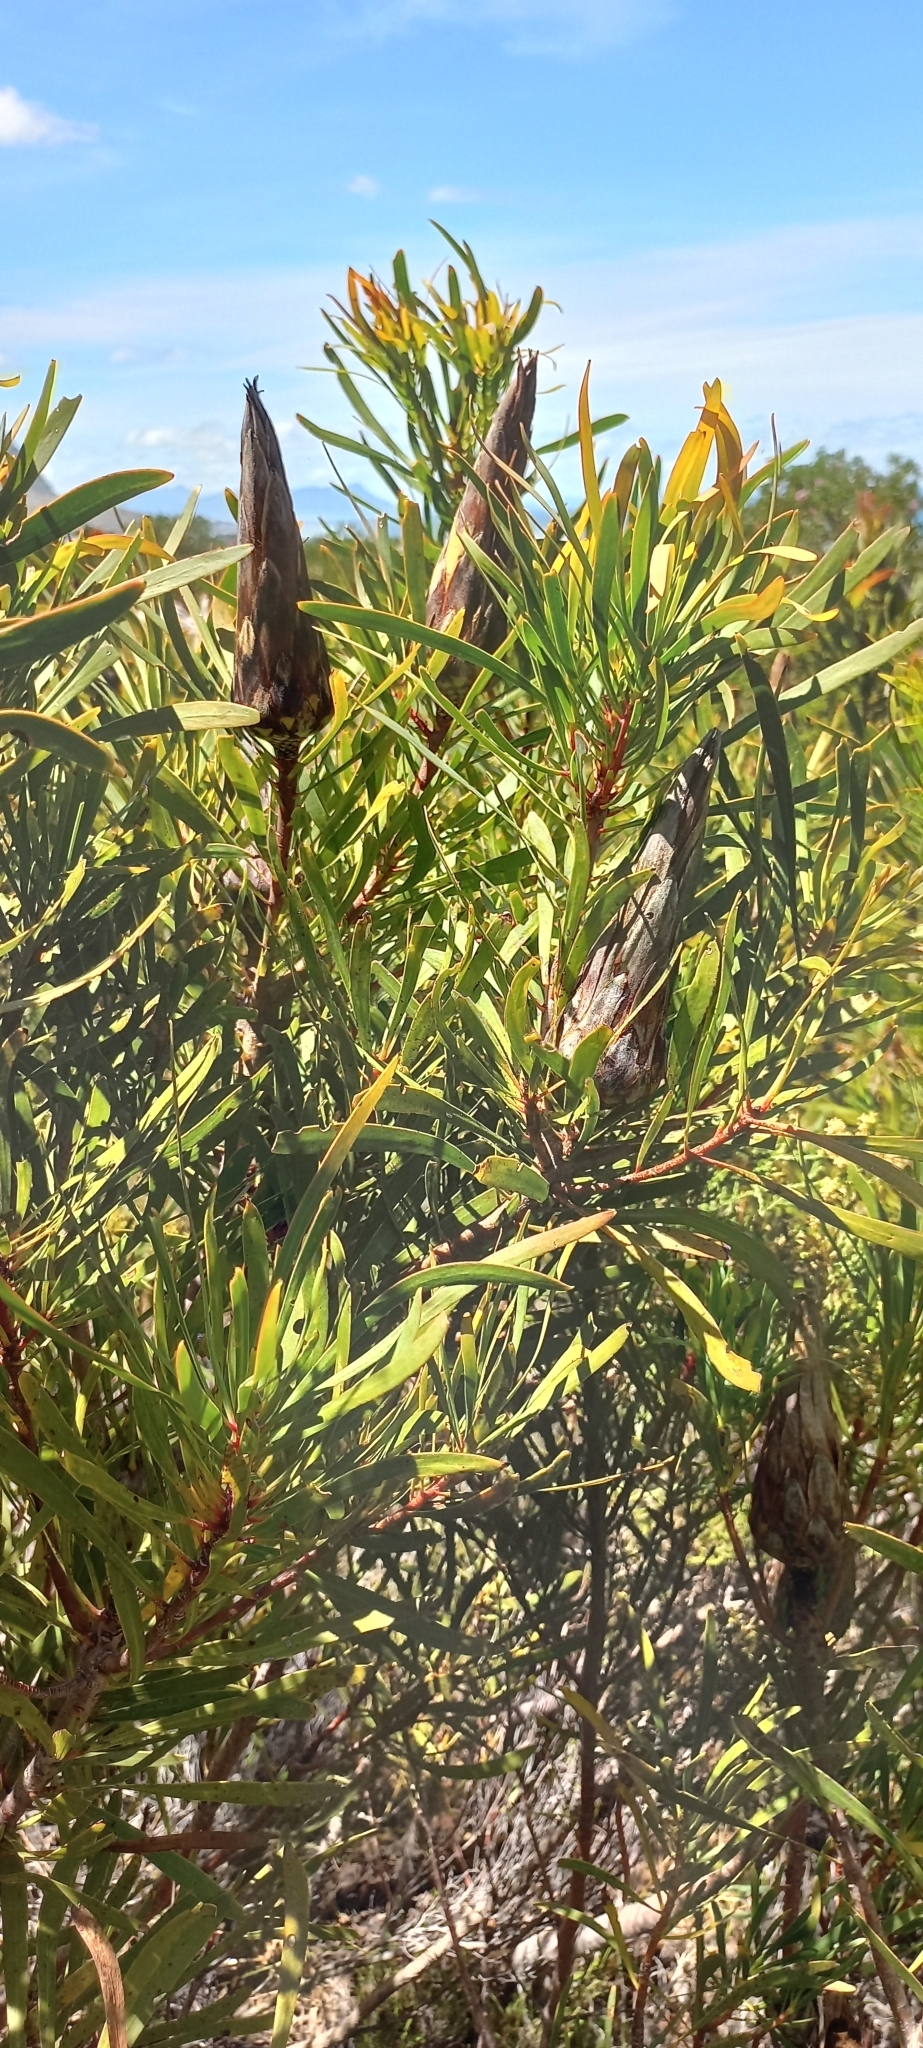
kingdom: Plantae
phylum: Tracheophyta
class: Magnoliopsida
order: Proteales
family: Proteaceae
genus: Protea
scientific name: Protea repens
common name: Sugarbush
